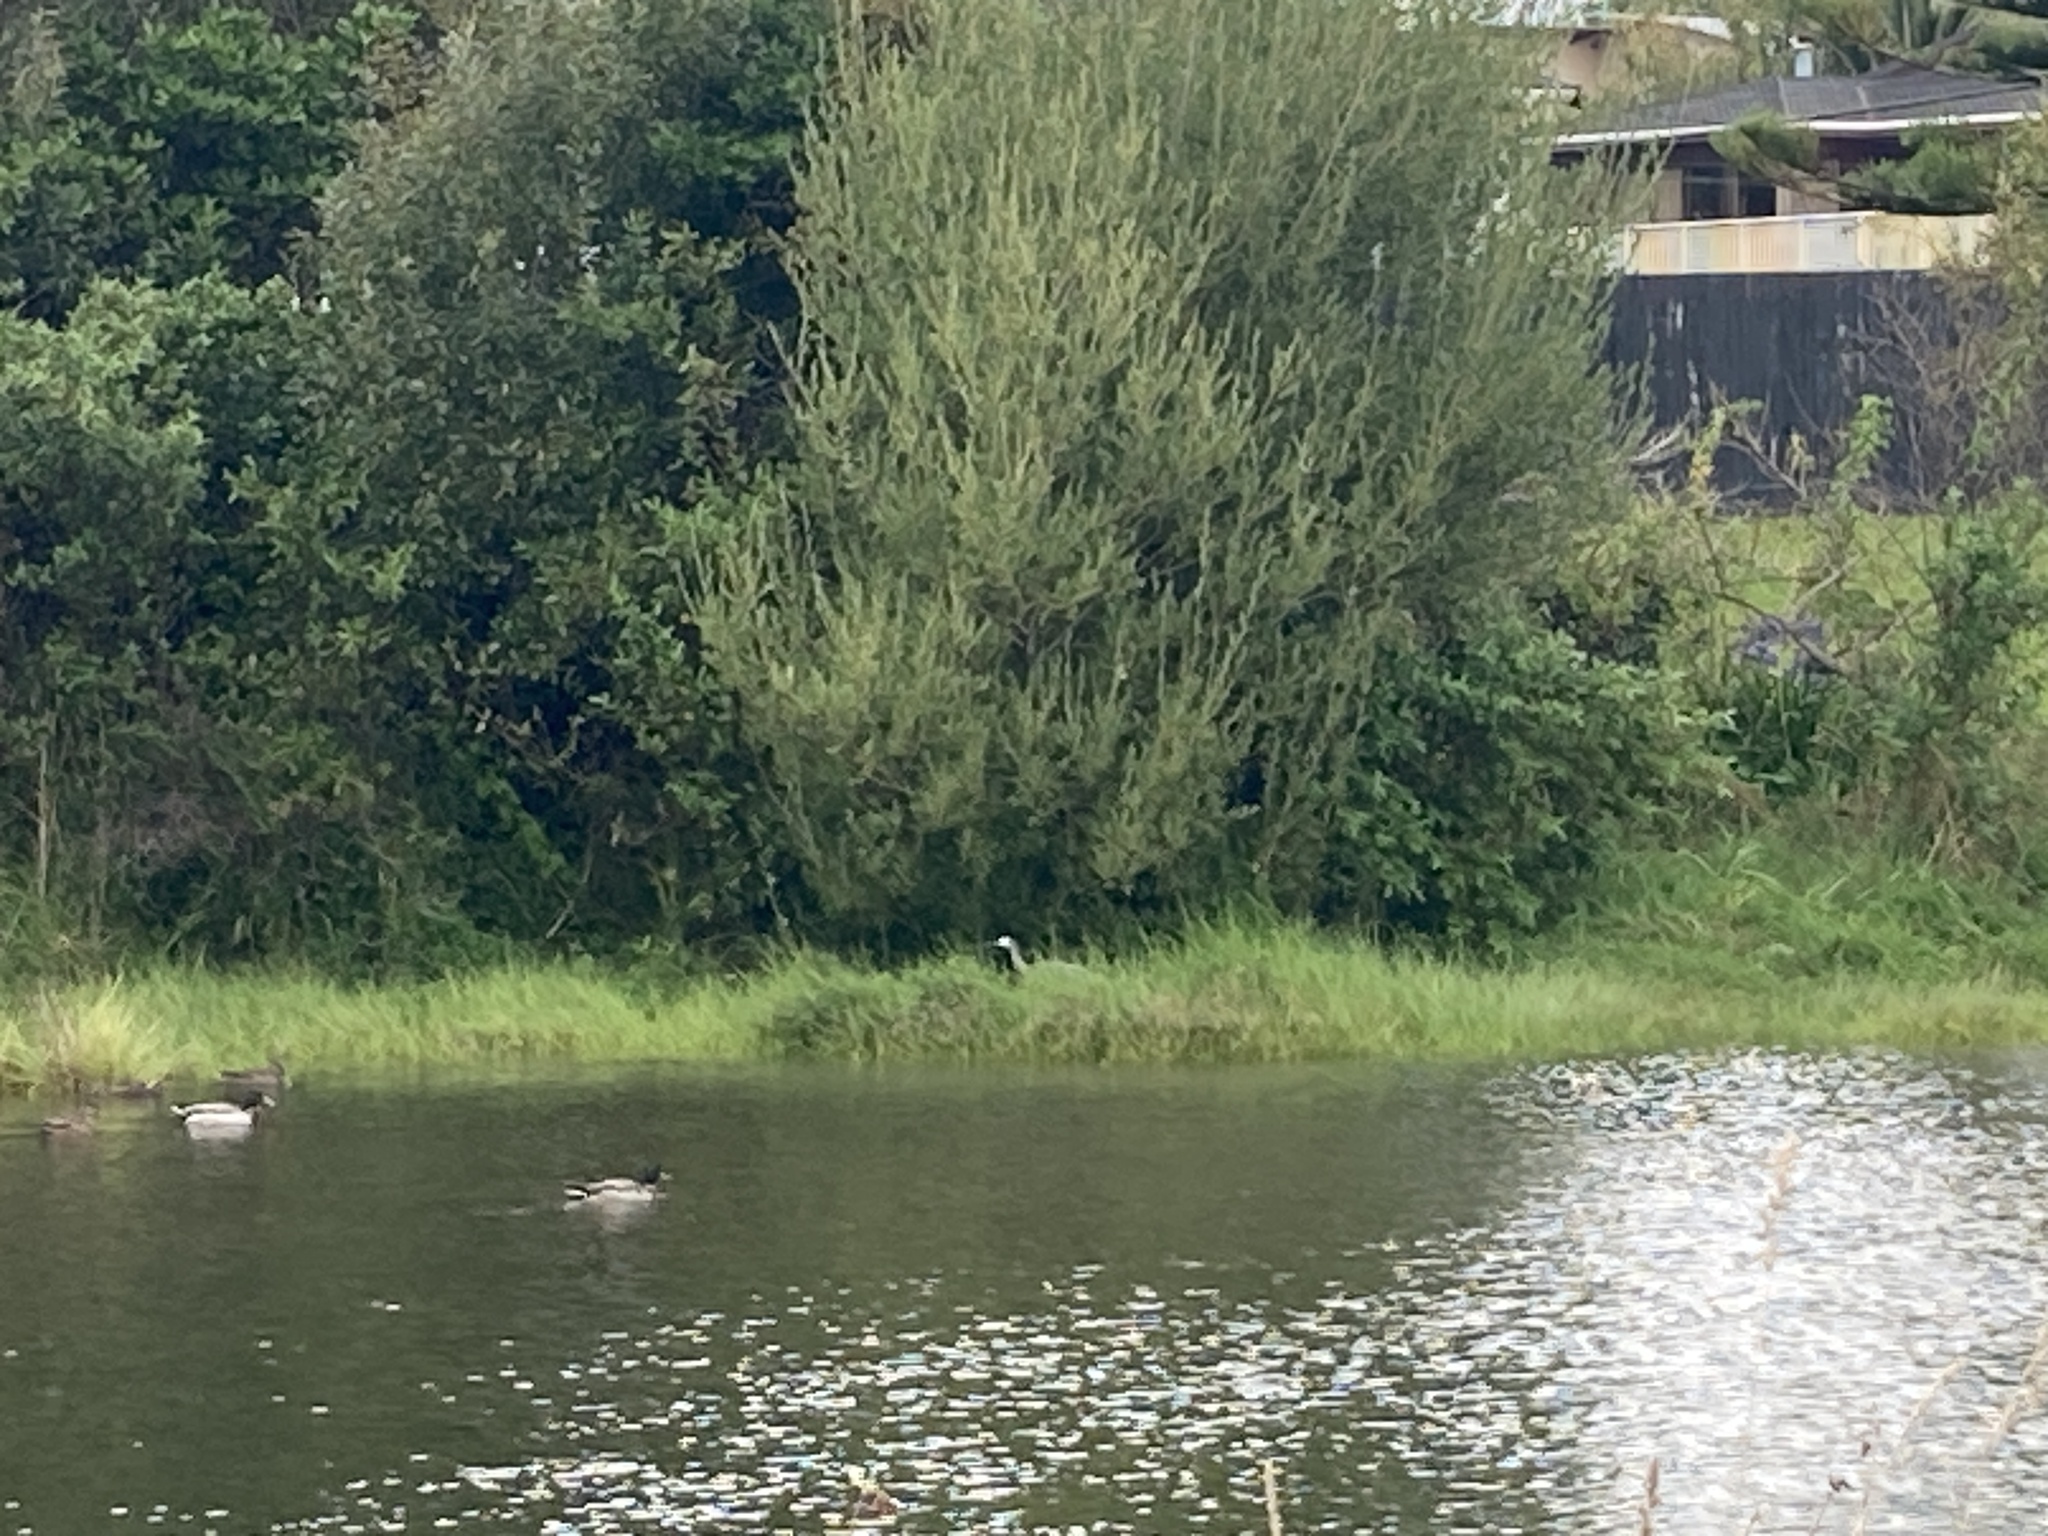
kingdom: Animalia
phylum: Chordata
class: Aves
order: Pelecaniformes
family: Ardeidae
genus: Egretta
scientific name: Egretta novaehollandiae
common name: White-faced heron
